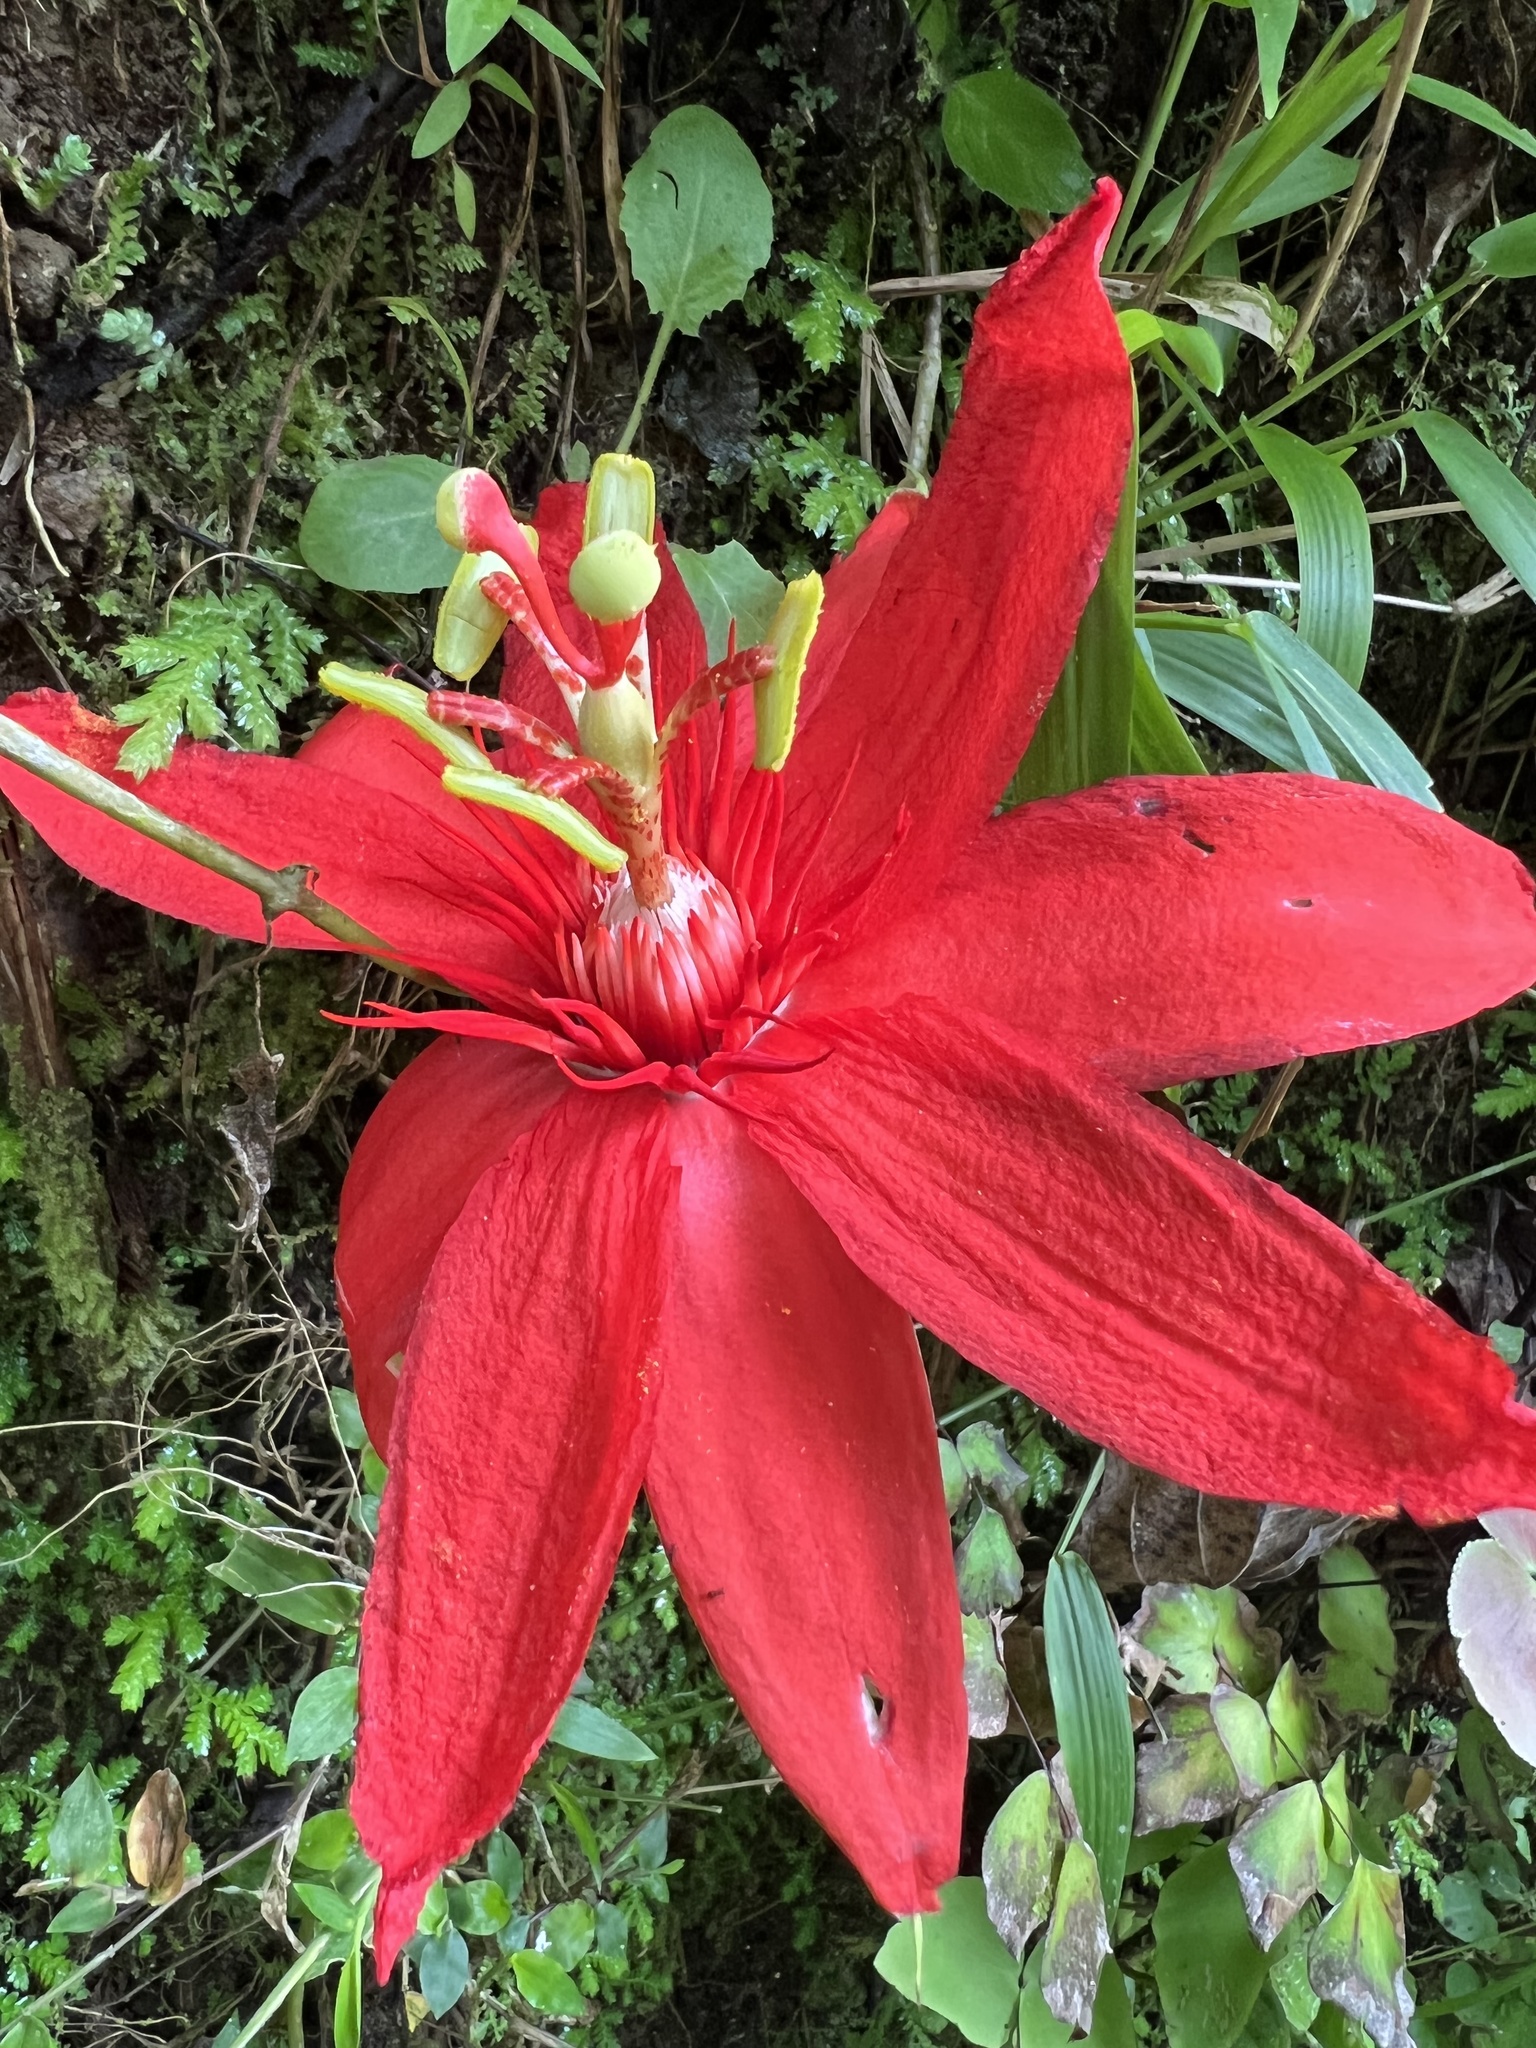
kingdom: Plantae
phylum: Tracheophyta
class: Magnoliopsida
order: Malpighiales
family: Passifloraceae
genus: Passiflora
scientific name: Passiflora vitifolia
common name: Perfumed passionflower
